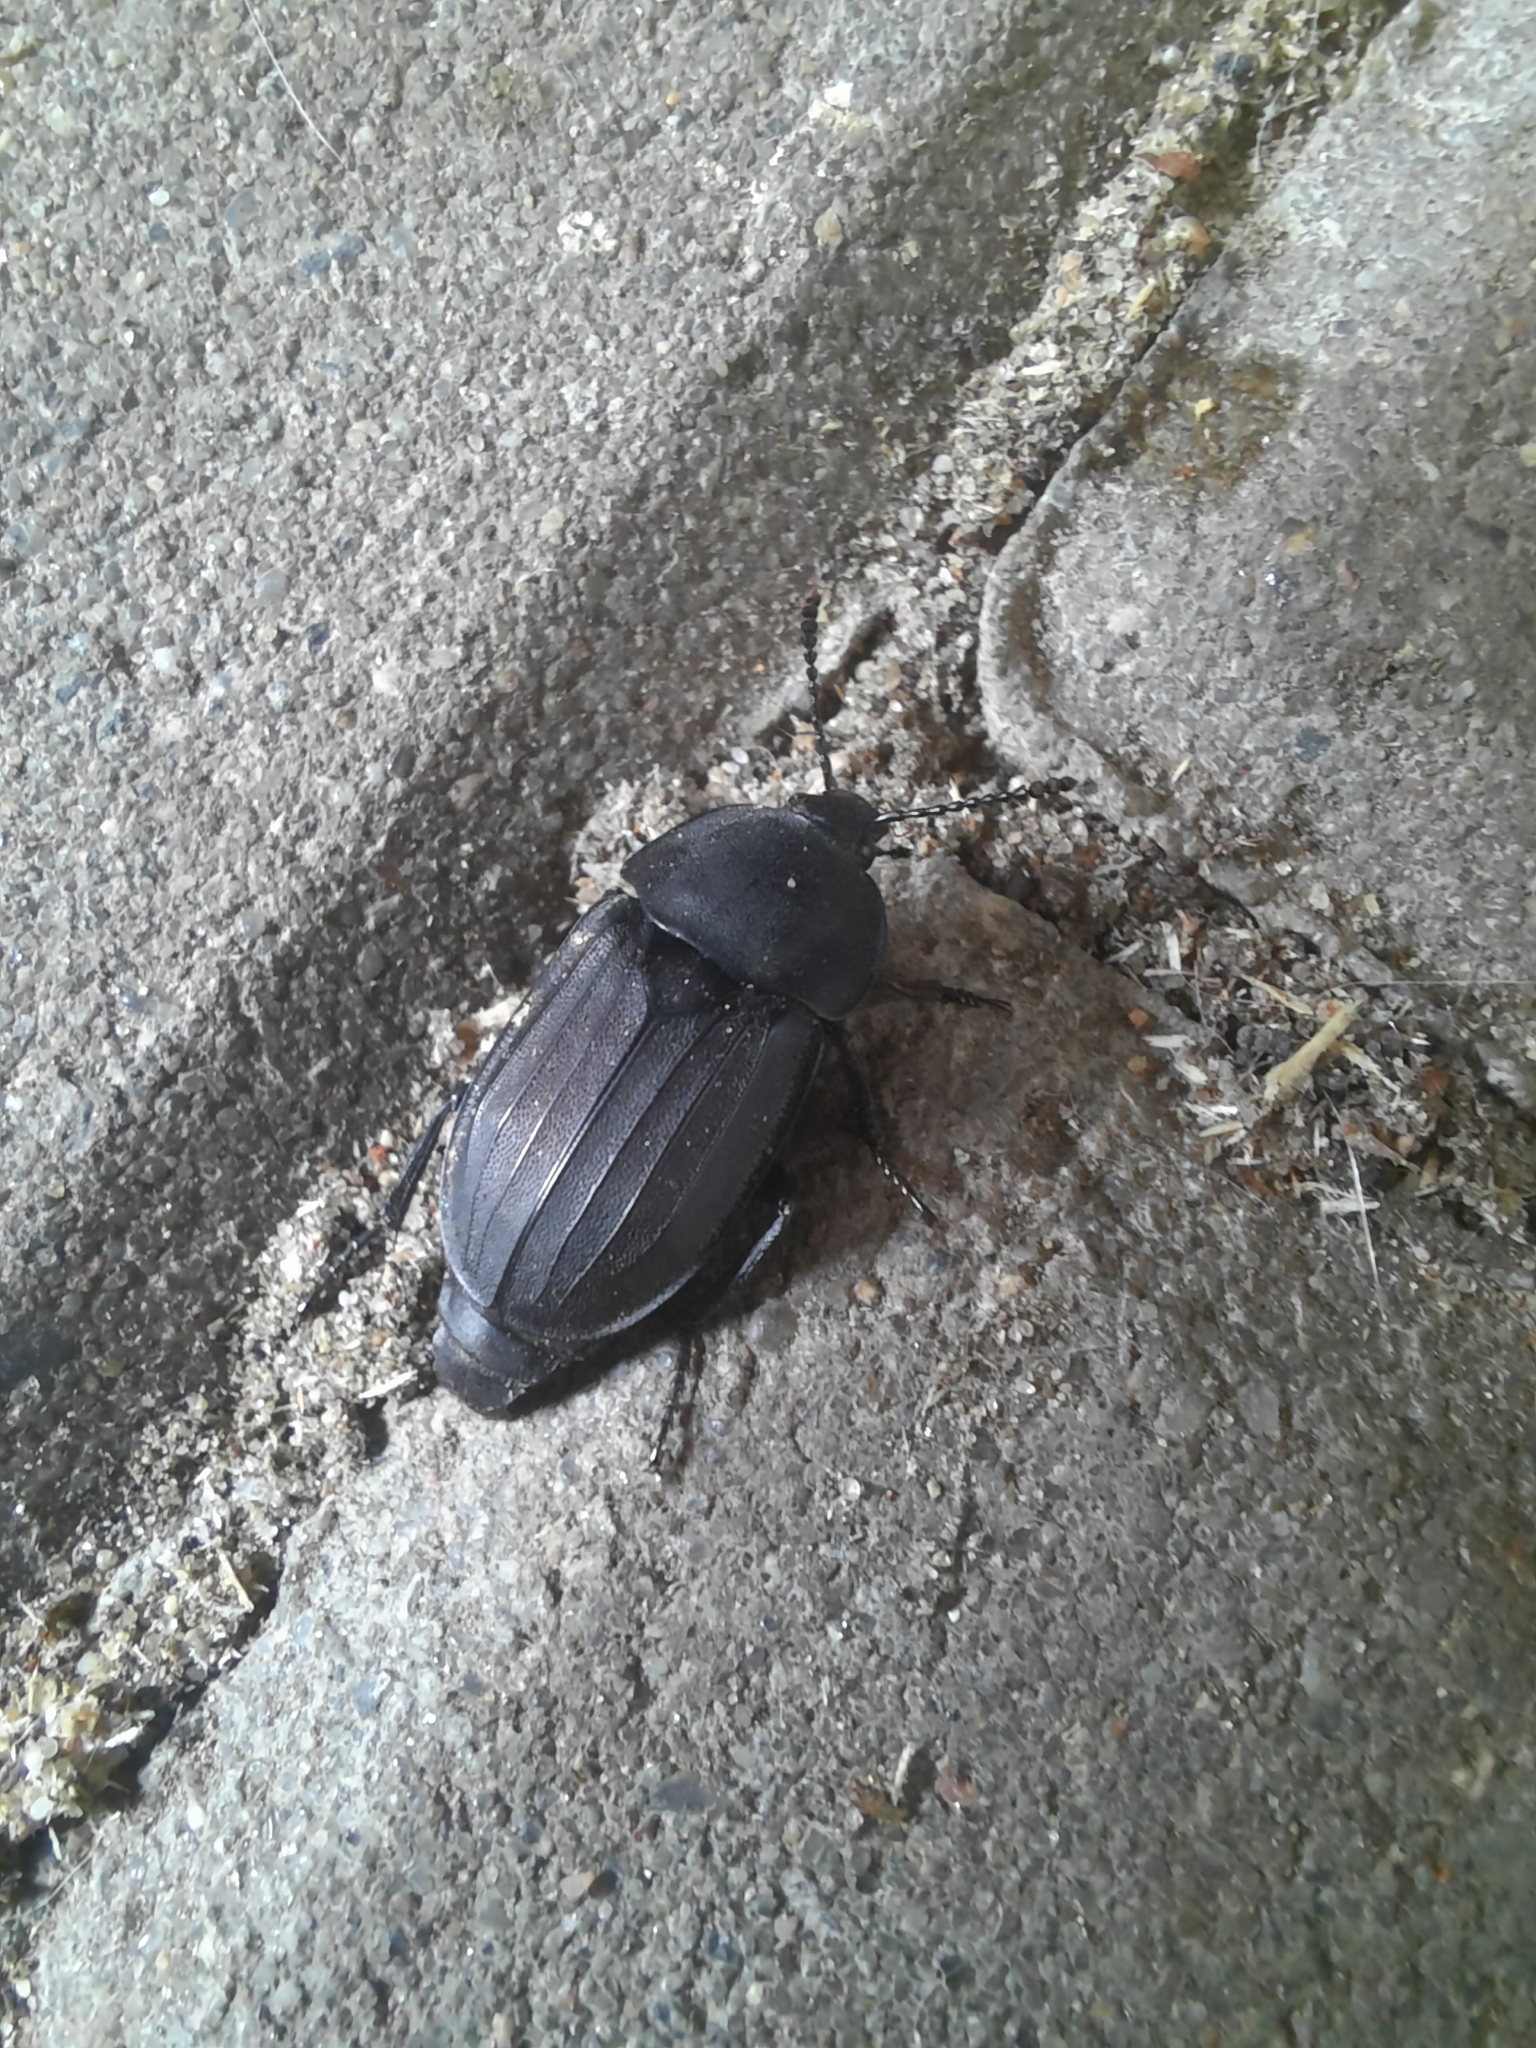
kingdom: Animalia
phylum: Arthropoda
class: Insecta
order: Coleoptera
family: Staphylinidae
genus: Silpha
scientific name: Silpha tristis
